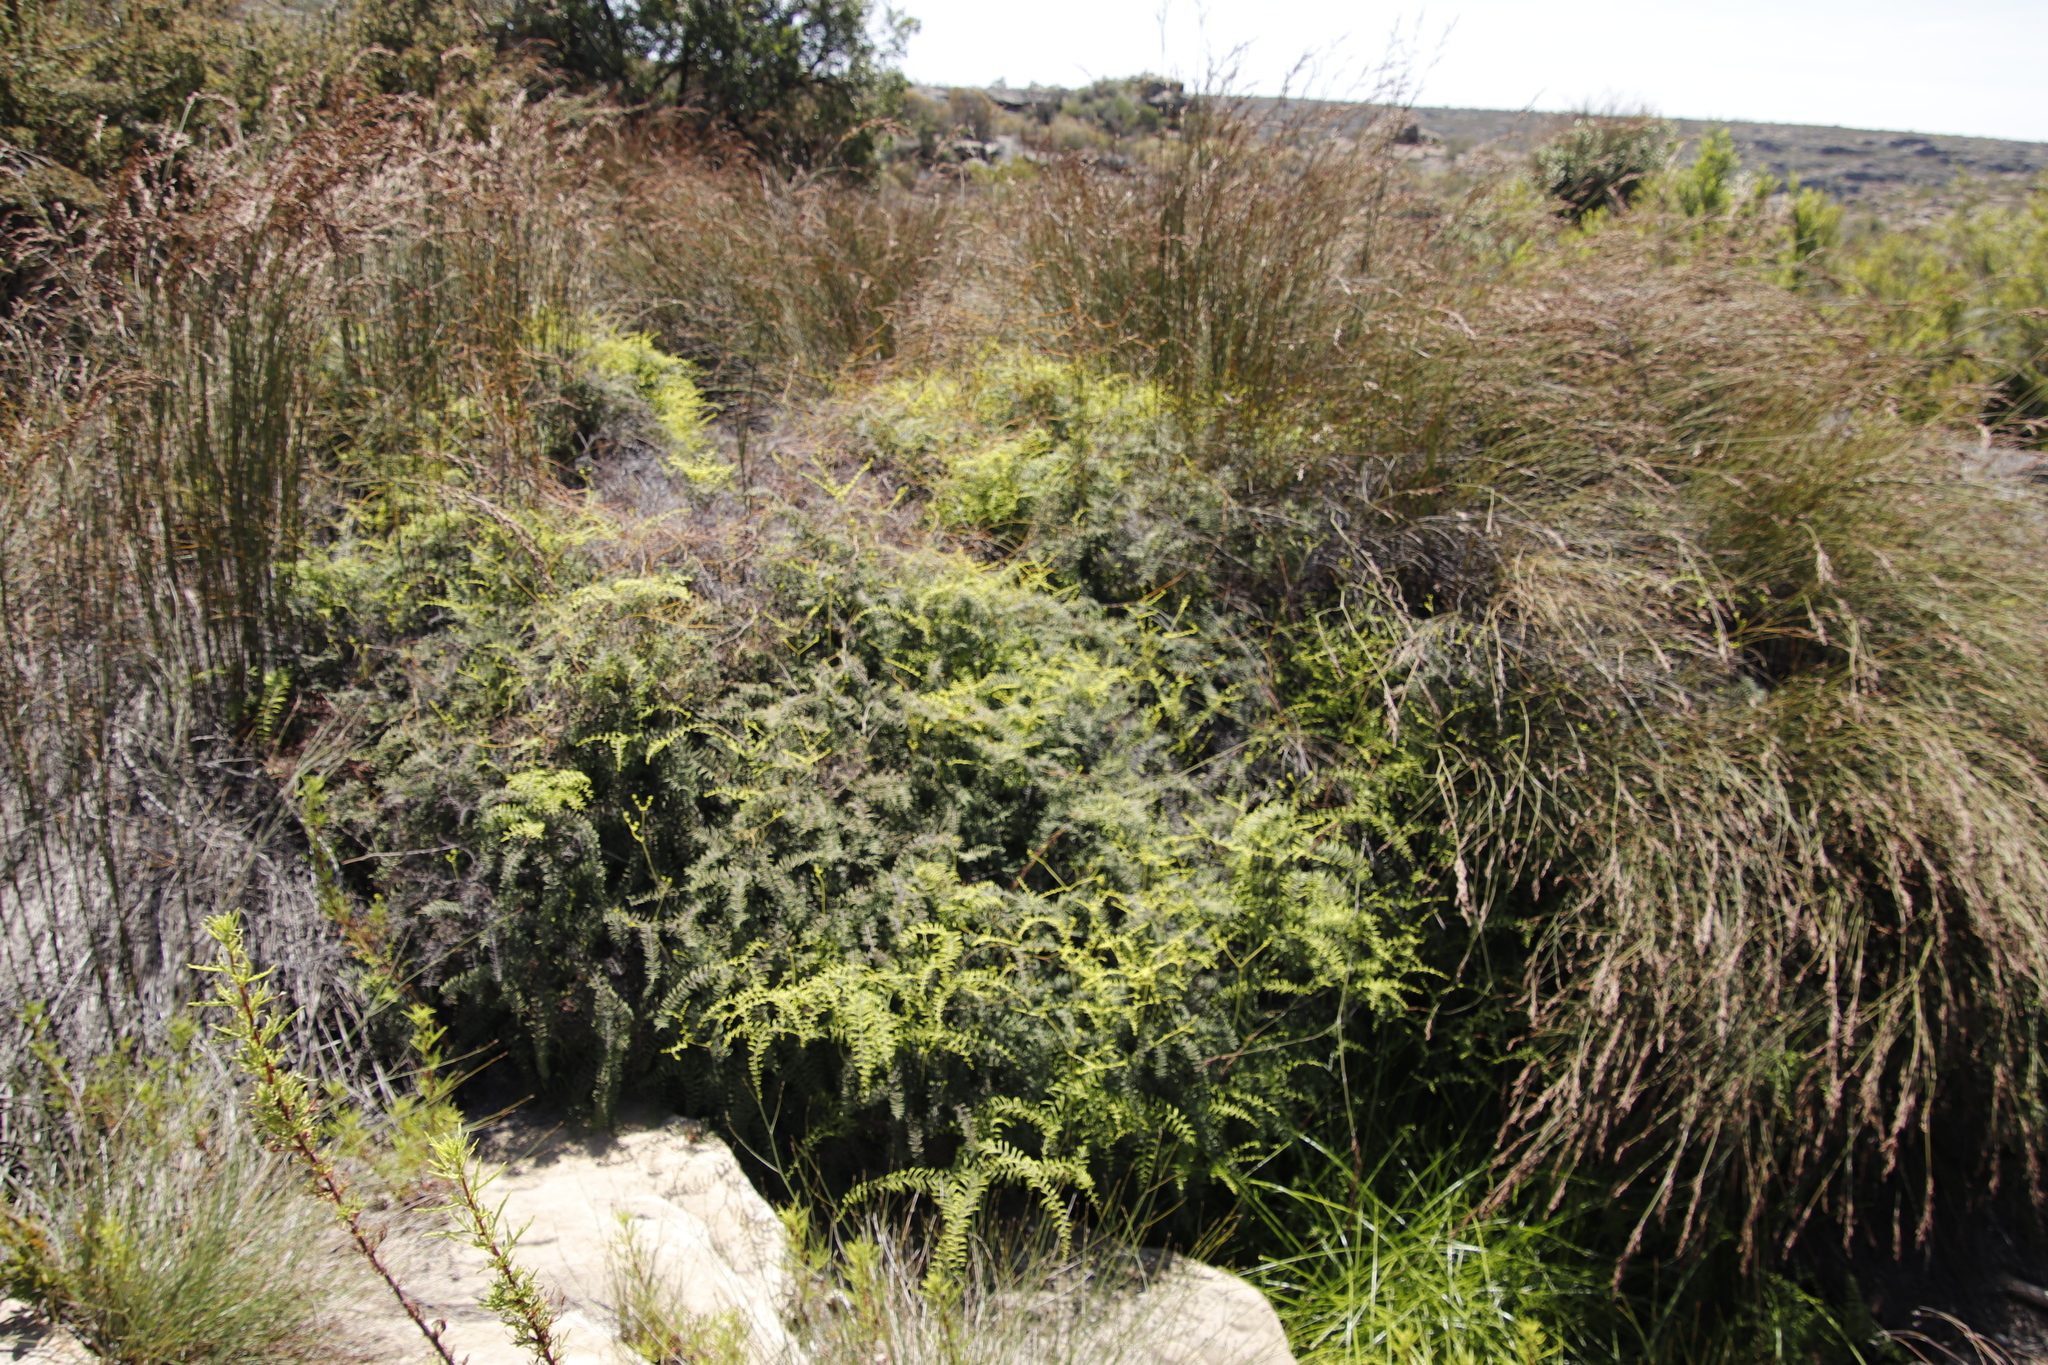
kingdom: Plantae
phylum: Tracheophyta
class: Polypodiopsida
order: Gleicheniales
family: Gleicheniaceae
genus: Gleichenia
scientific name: Gleichenia polypodioides
